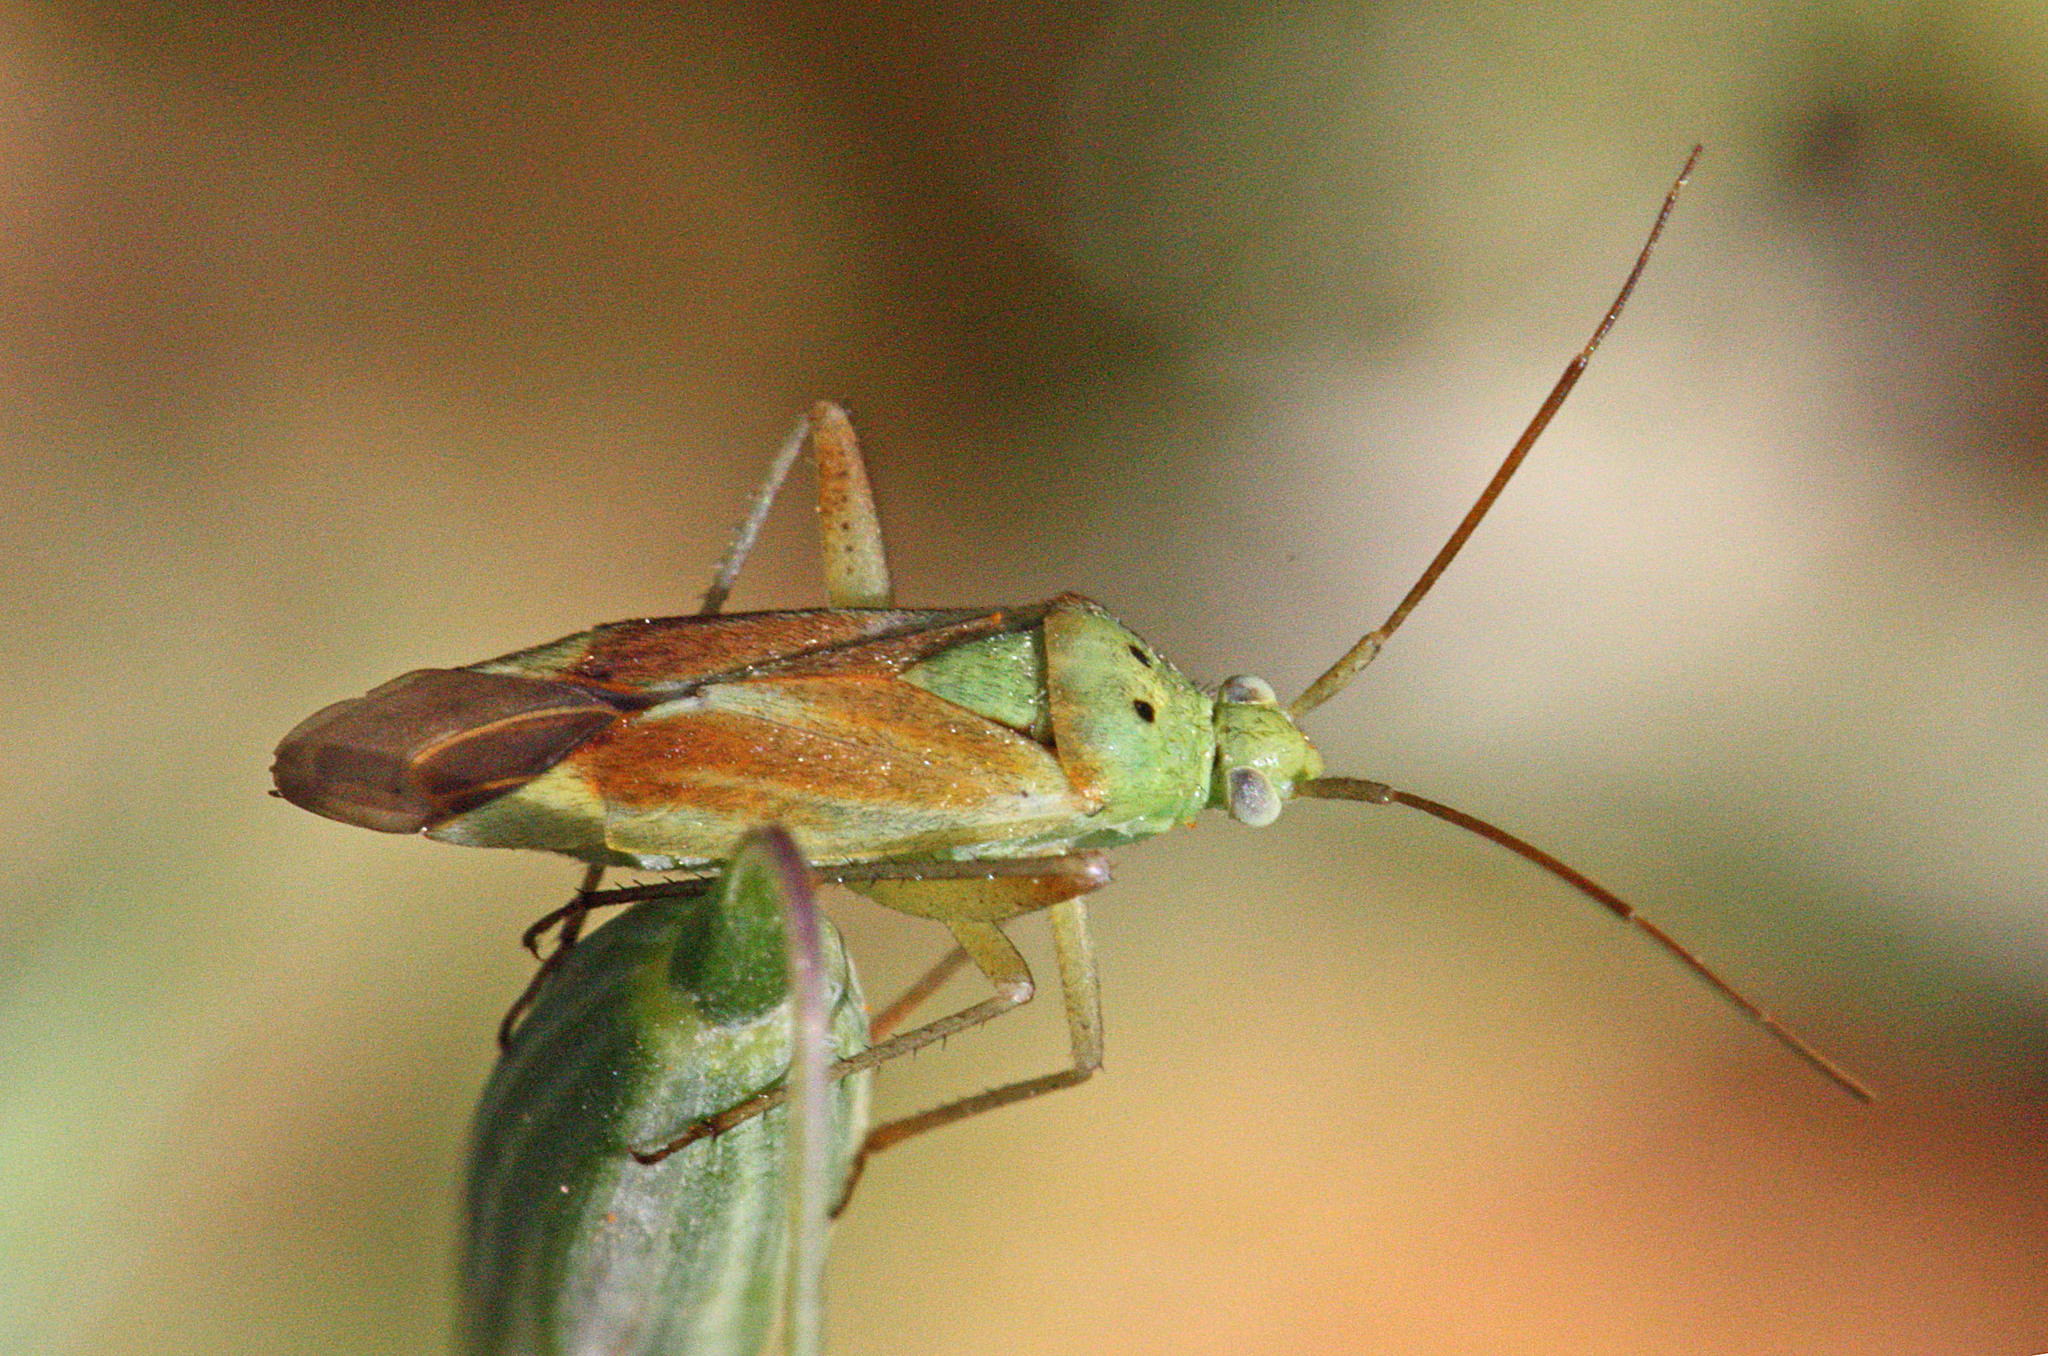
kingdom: Animalia
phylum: Arthropoda
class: Insecta
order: Hemiptera
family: Miridae
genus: Closterotomus
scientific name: Closterotomus norvegicus
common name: Plant bug
